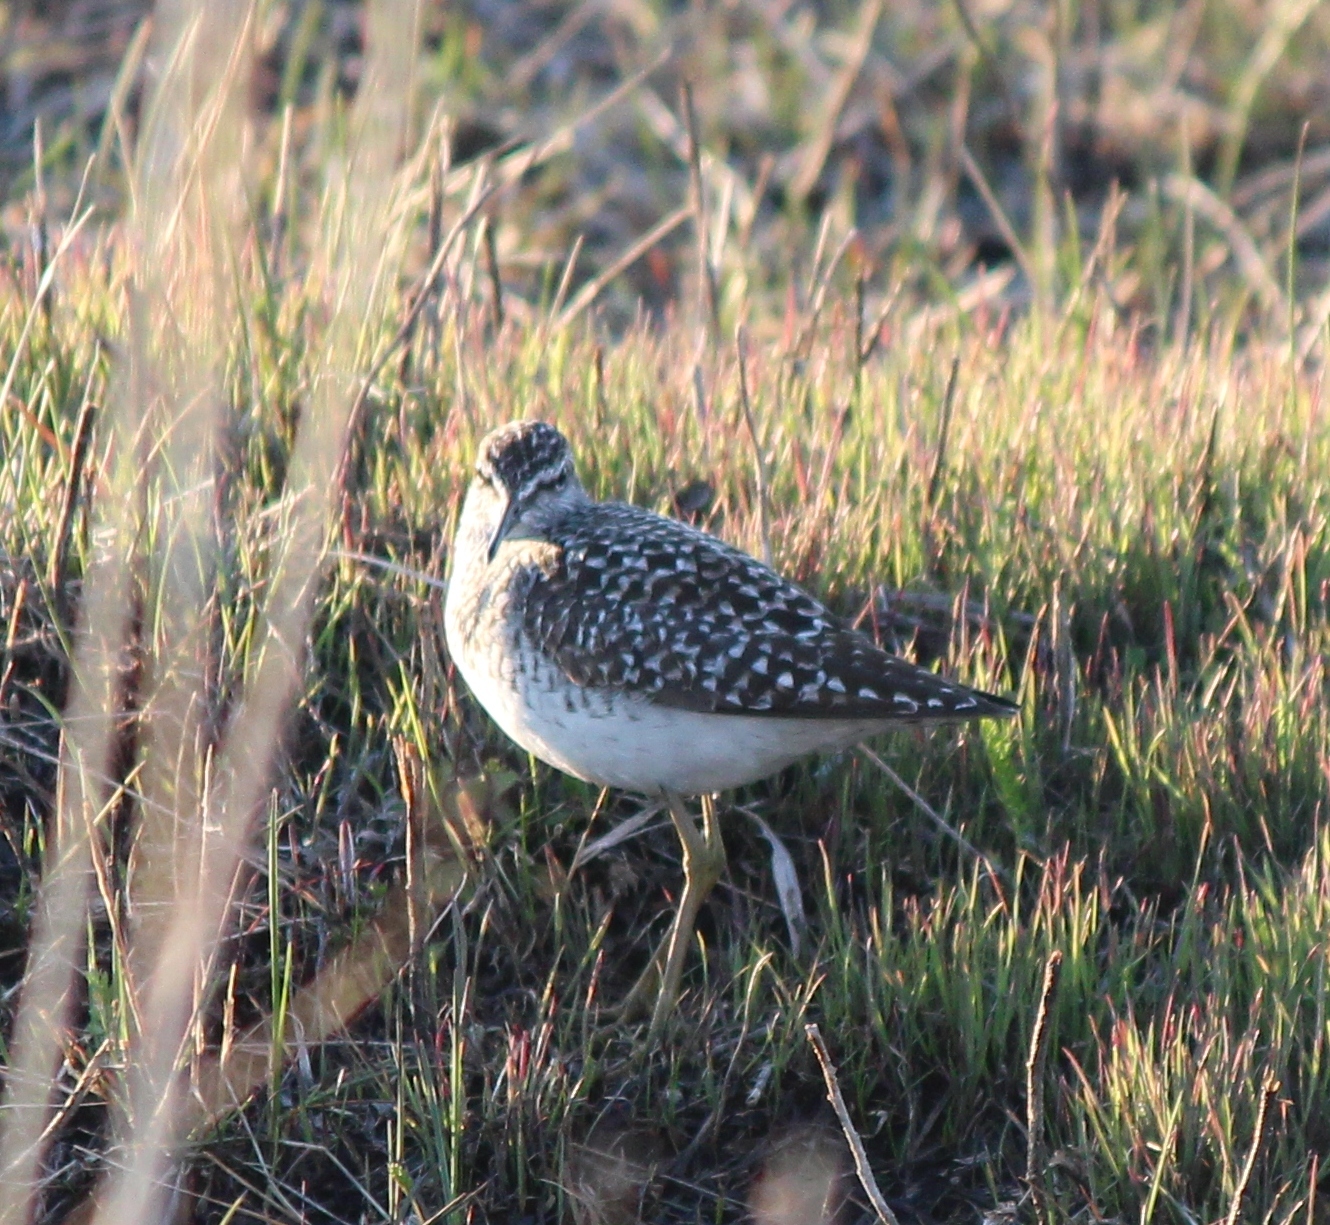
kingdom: Animalia
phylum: Chordata
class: Aves
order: Charadriiformes
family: Scolopacidae
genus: Tringa
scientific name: Tringa glareola
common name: Wood sandpiper
